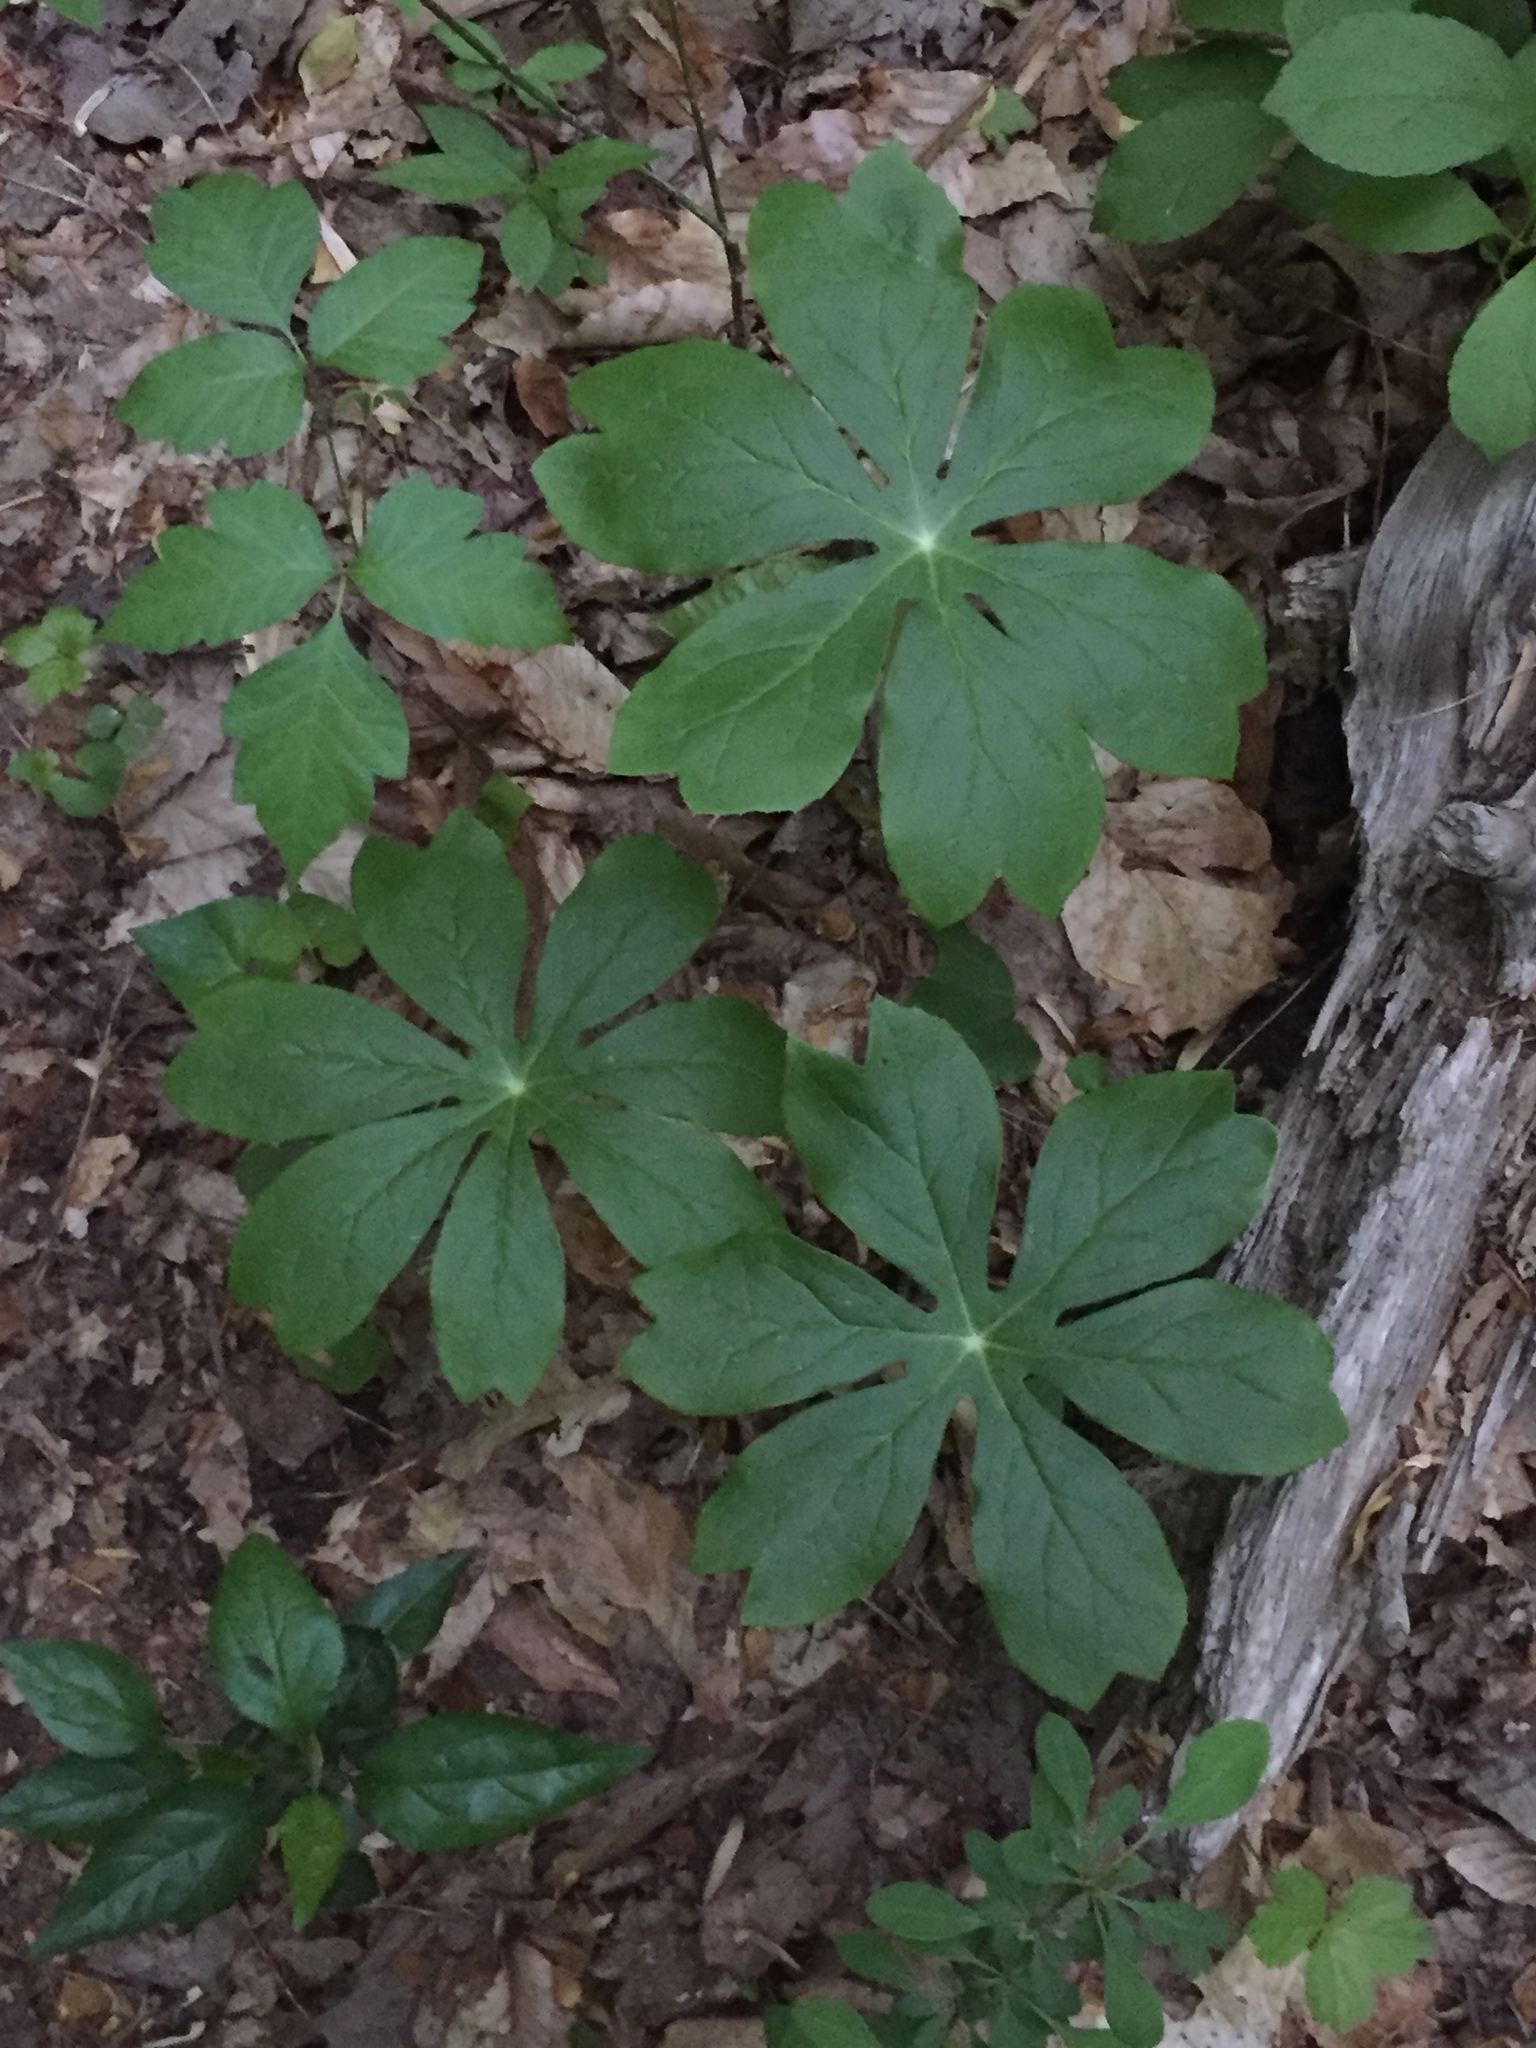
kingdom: Plantae
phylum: Tracheophyta
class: Magnoliopsida
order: Ranunculales
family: Berberidaceae
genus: Podophyllum
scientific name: Podophyllum peltatum
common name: Wild mandrake
